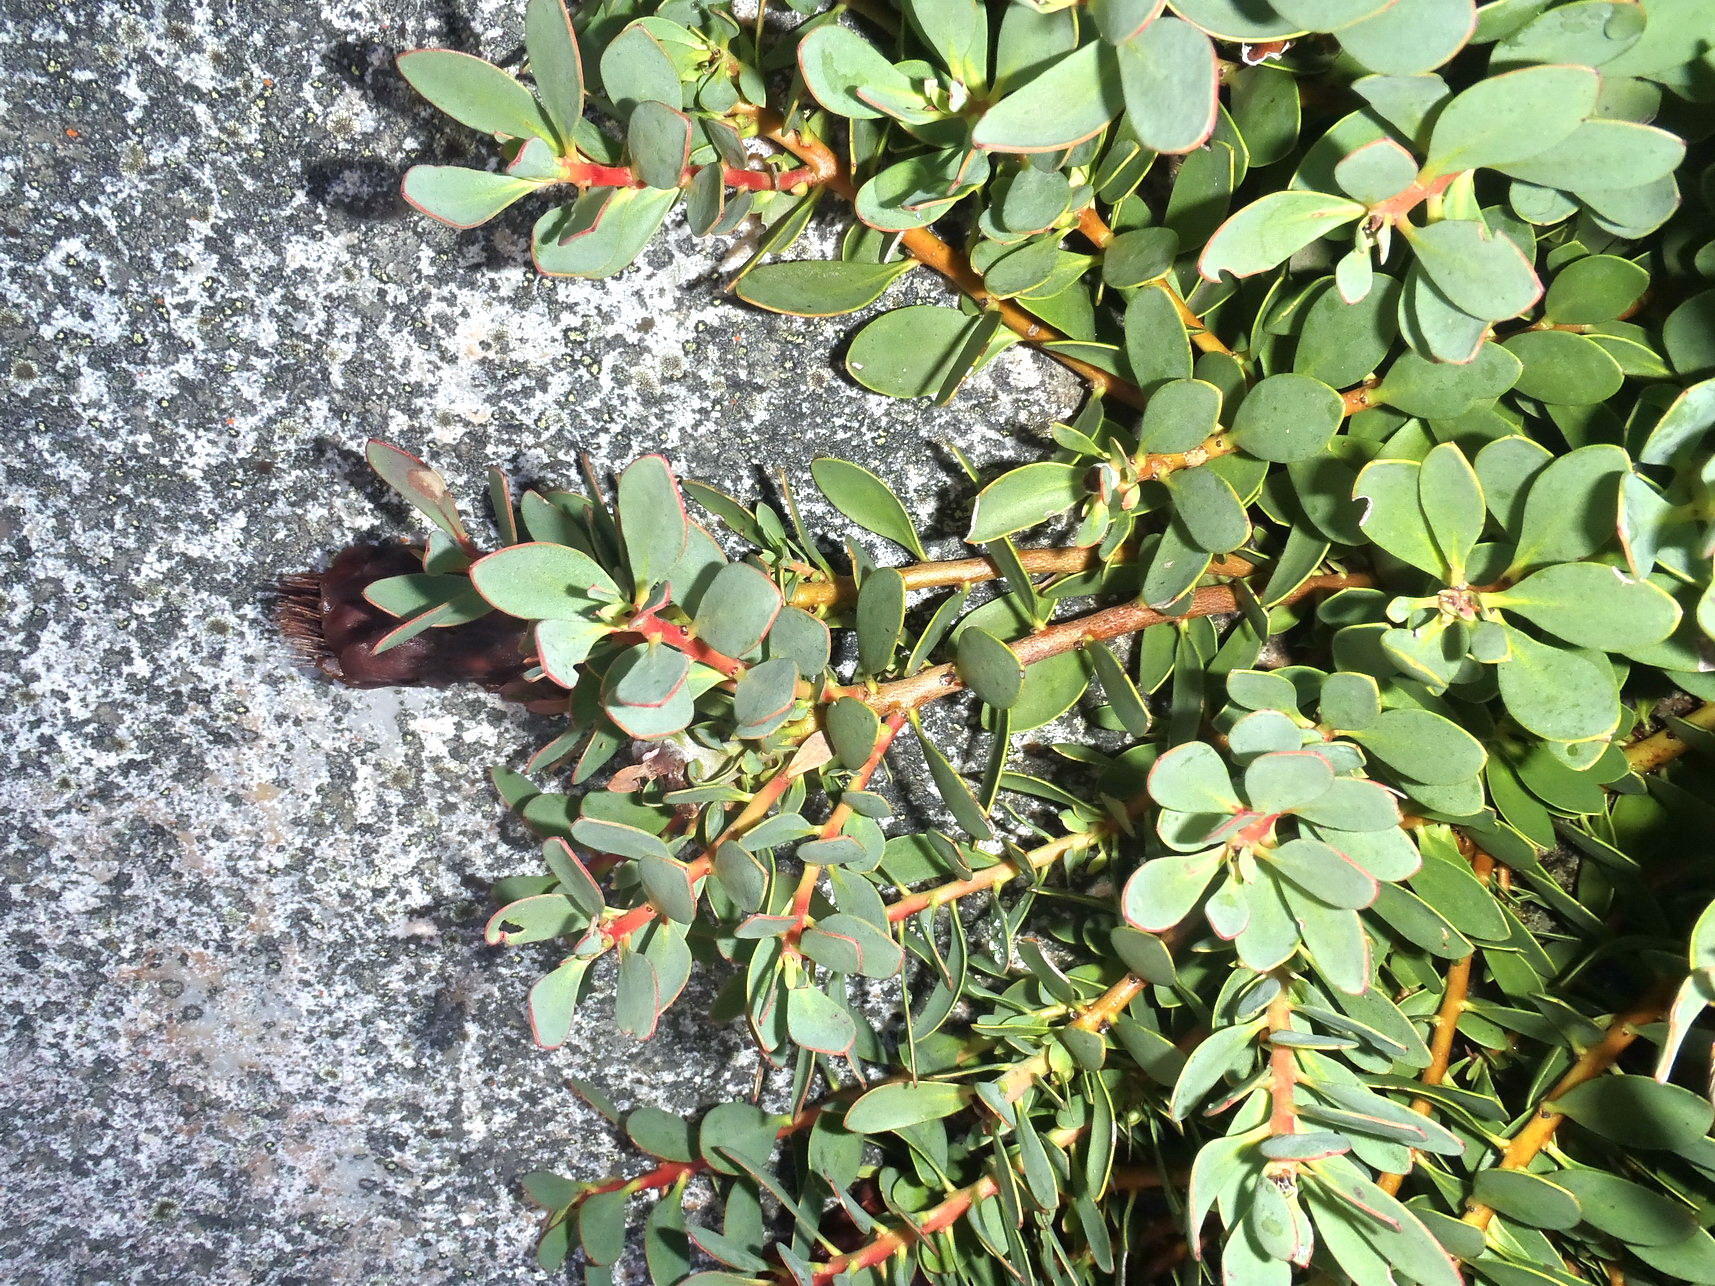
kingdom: Plantae
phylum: Tracheophyta
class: Magnoliopsida
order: Proteales
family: Proteaceae
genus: Protea
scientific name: Protea venusta
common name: Cascade sugarbush
